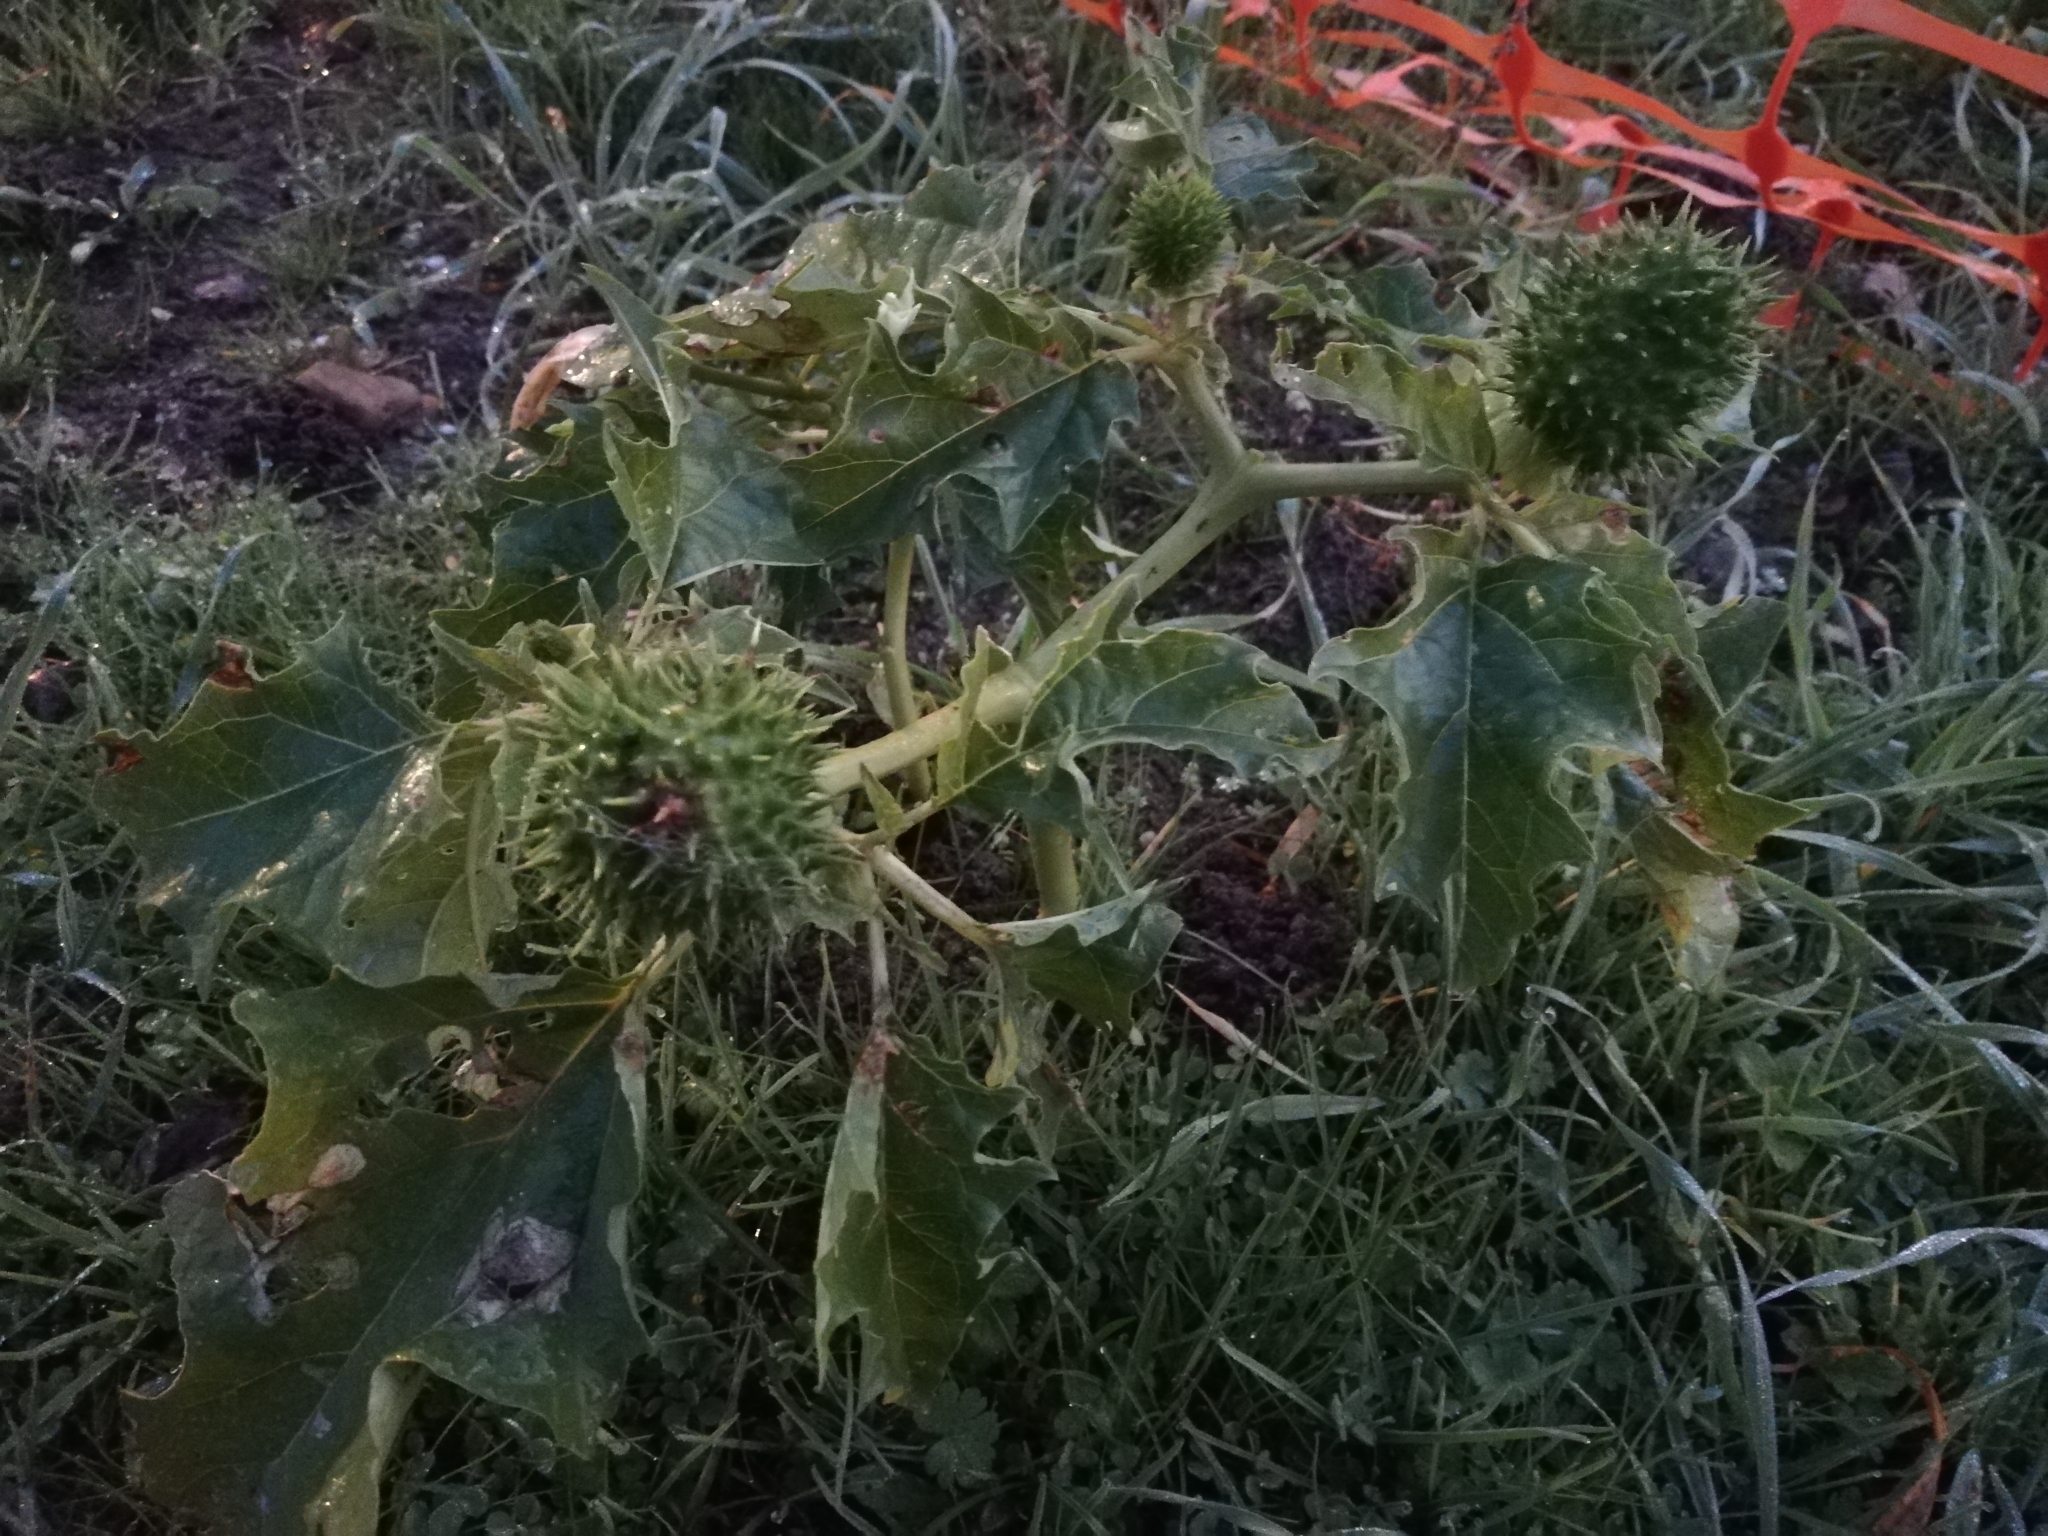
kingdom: Plantae
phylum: Tracheophyta
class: Magnoliopsida
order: Solanales
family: Solanaceae
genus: Datura
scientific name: Datura stramonium
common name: Thorn-apple
